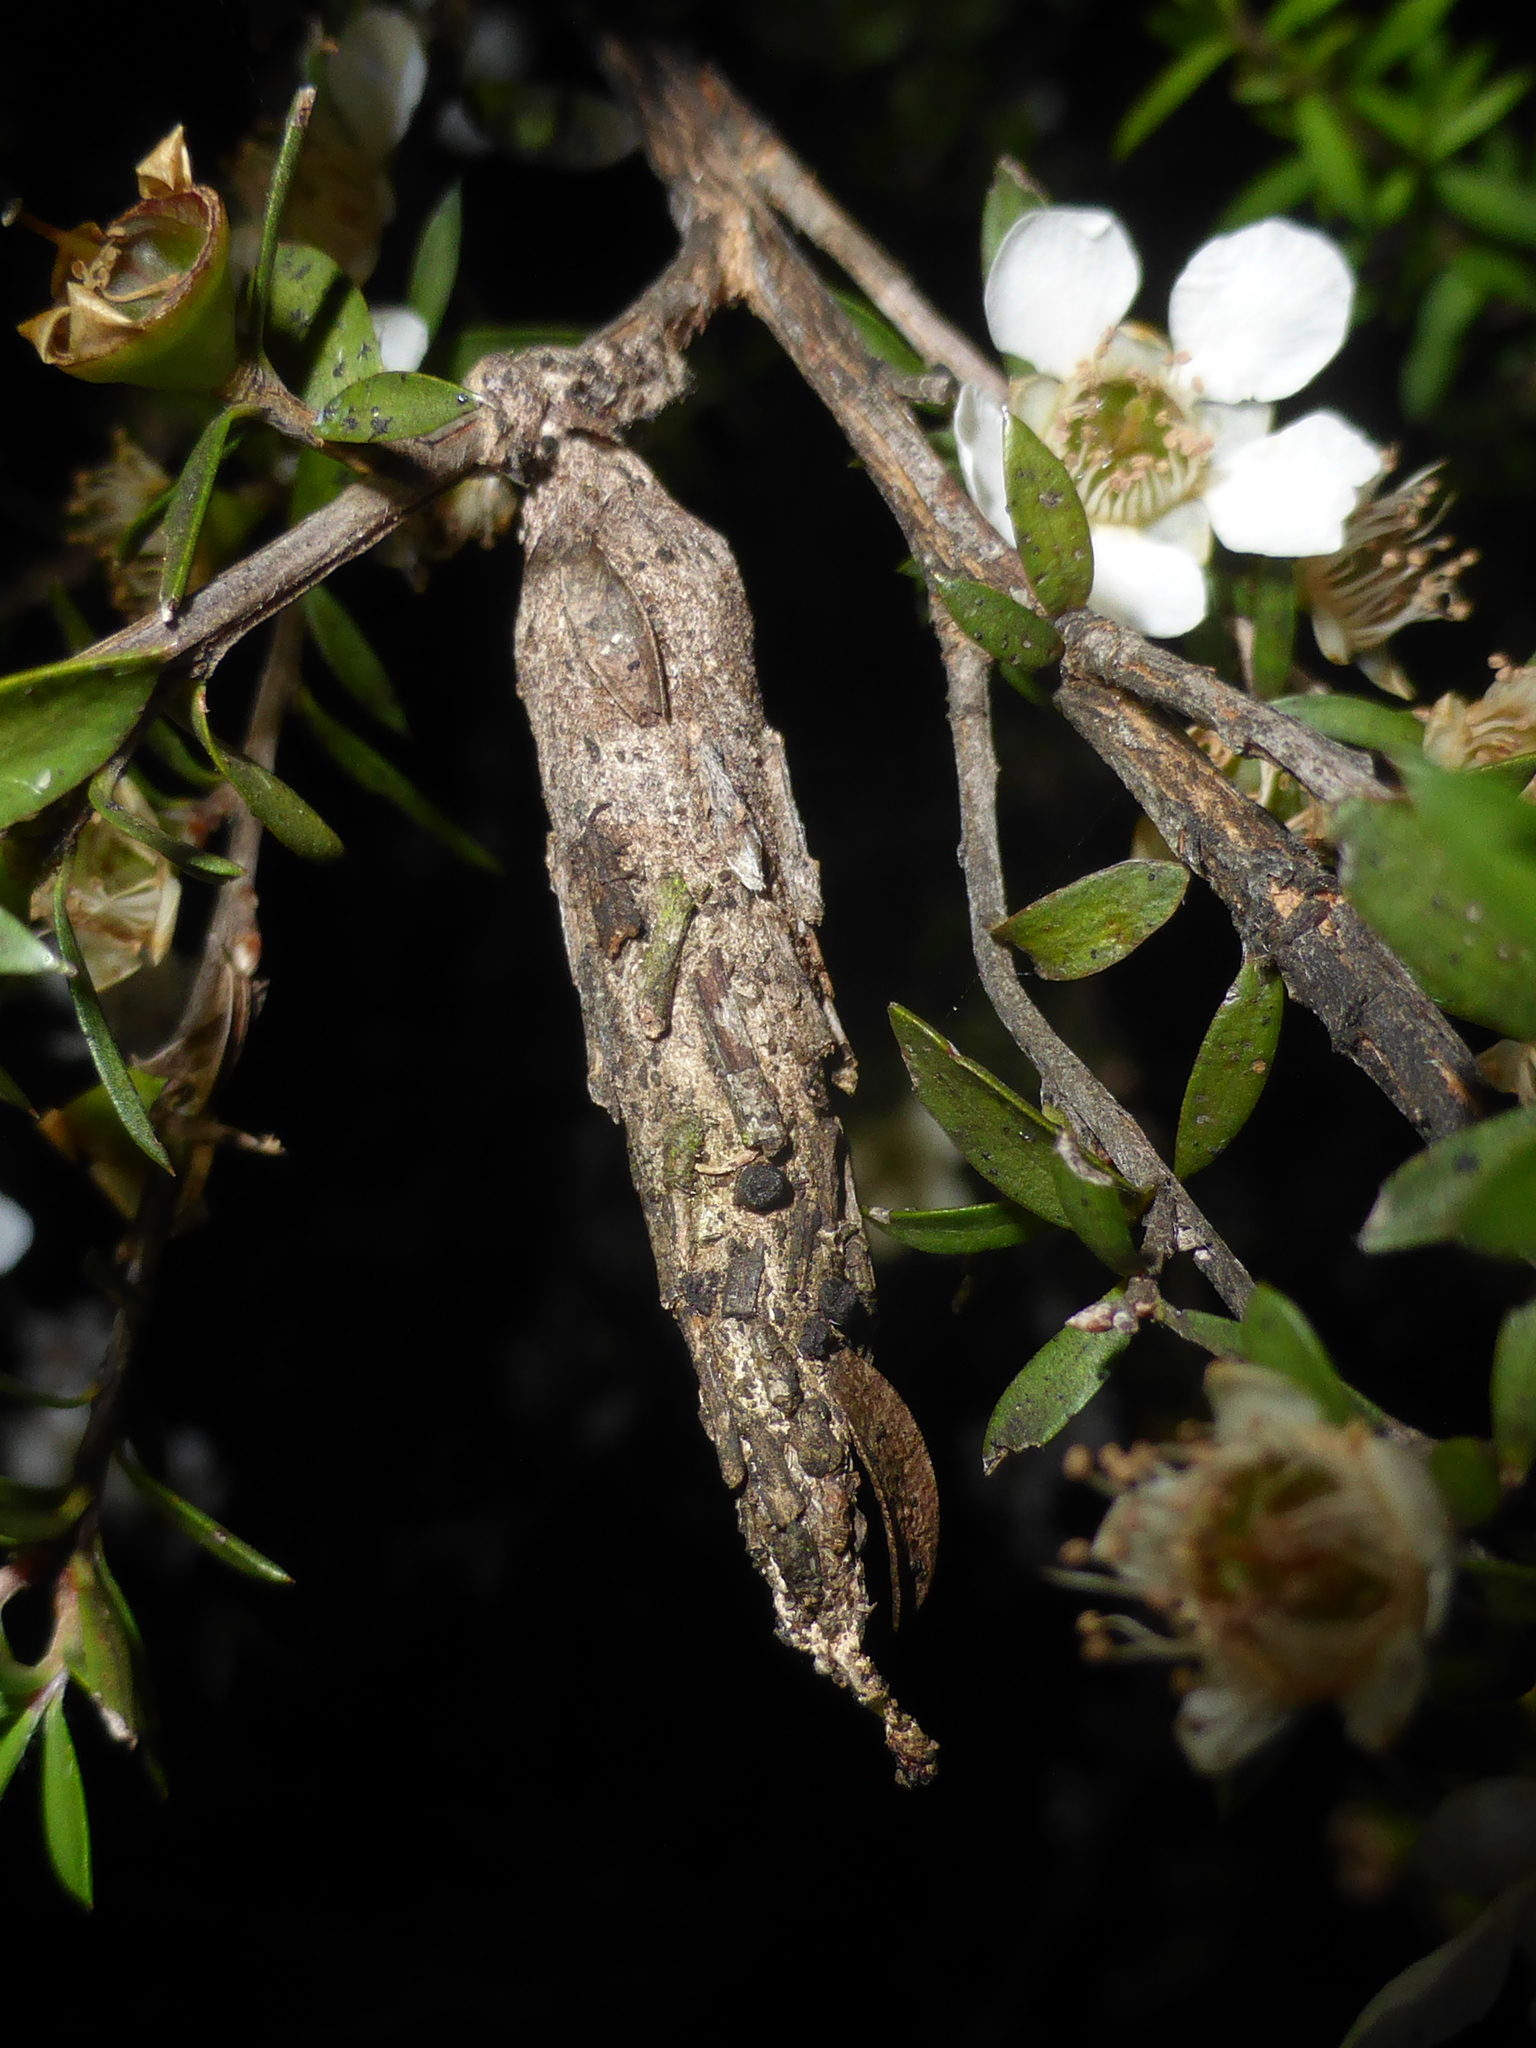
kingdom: Animalia
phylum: Arthropoda
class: Insecta
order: Lepidoptera
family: Psychidae
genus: Liothula
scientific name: Liothula omnivora
